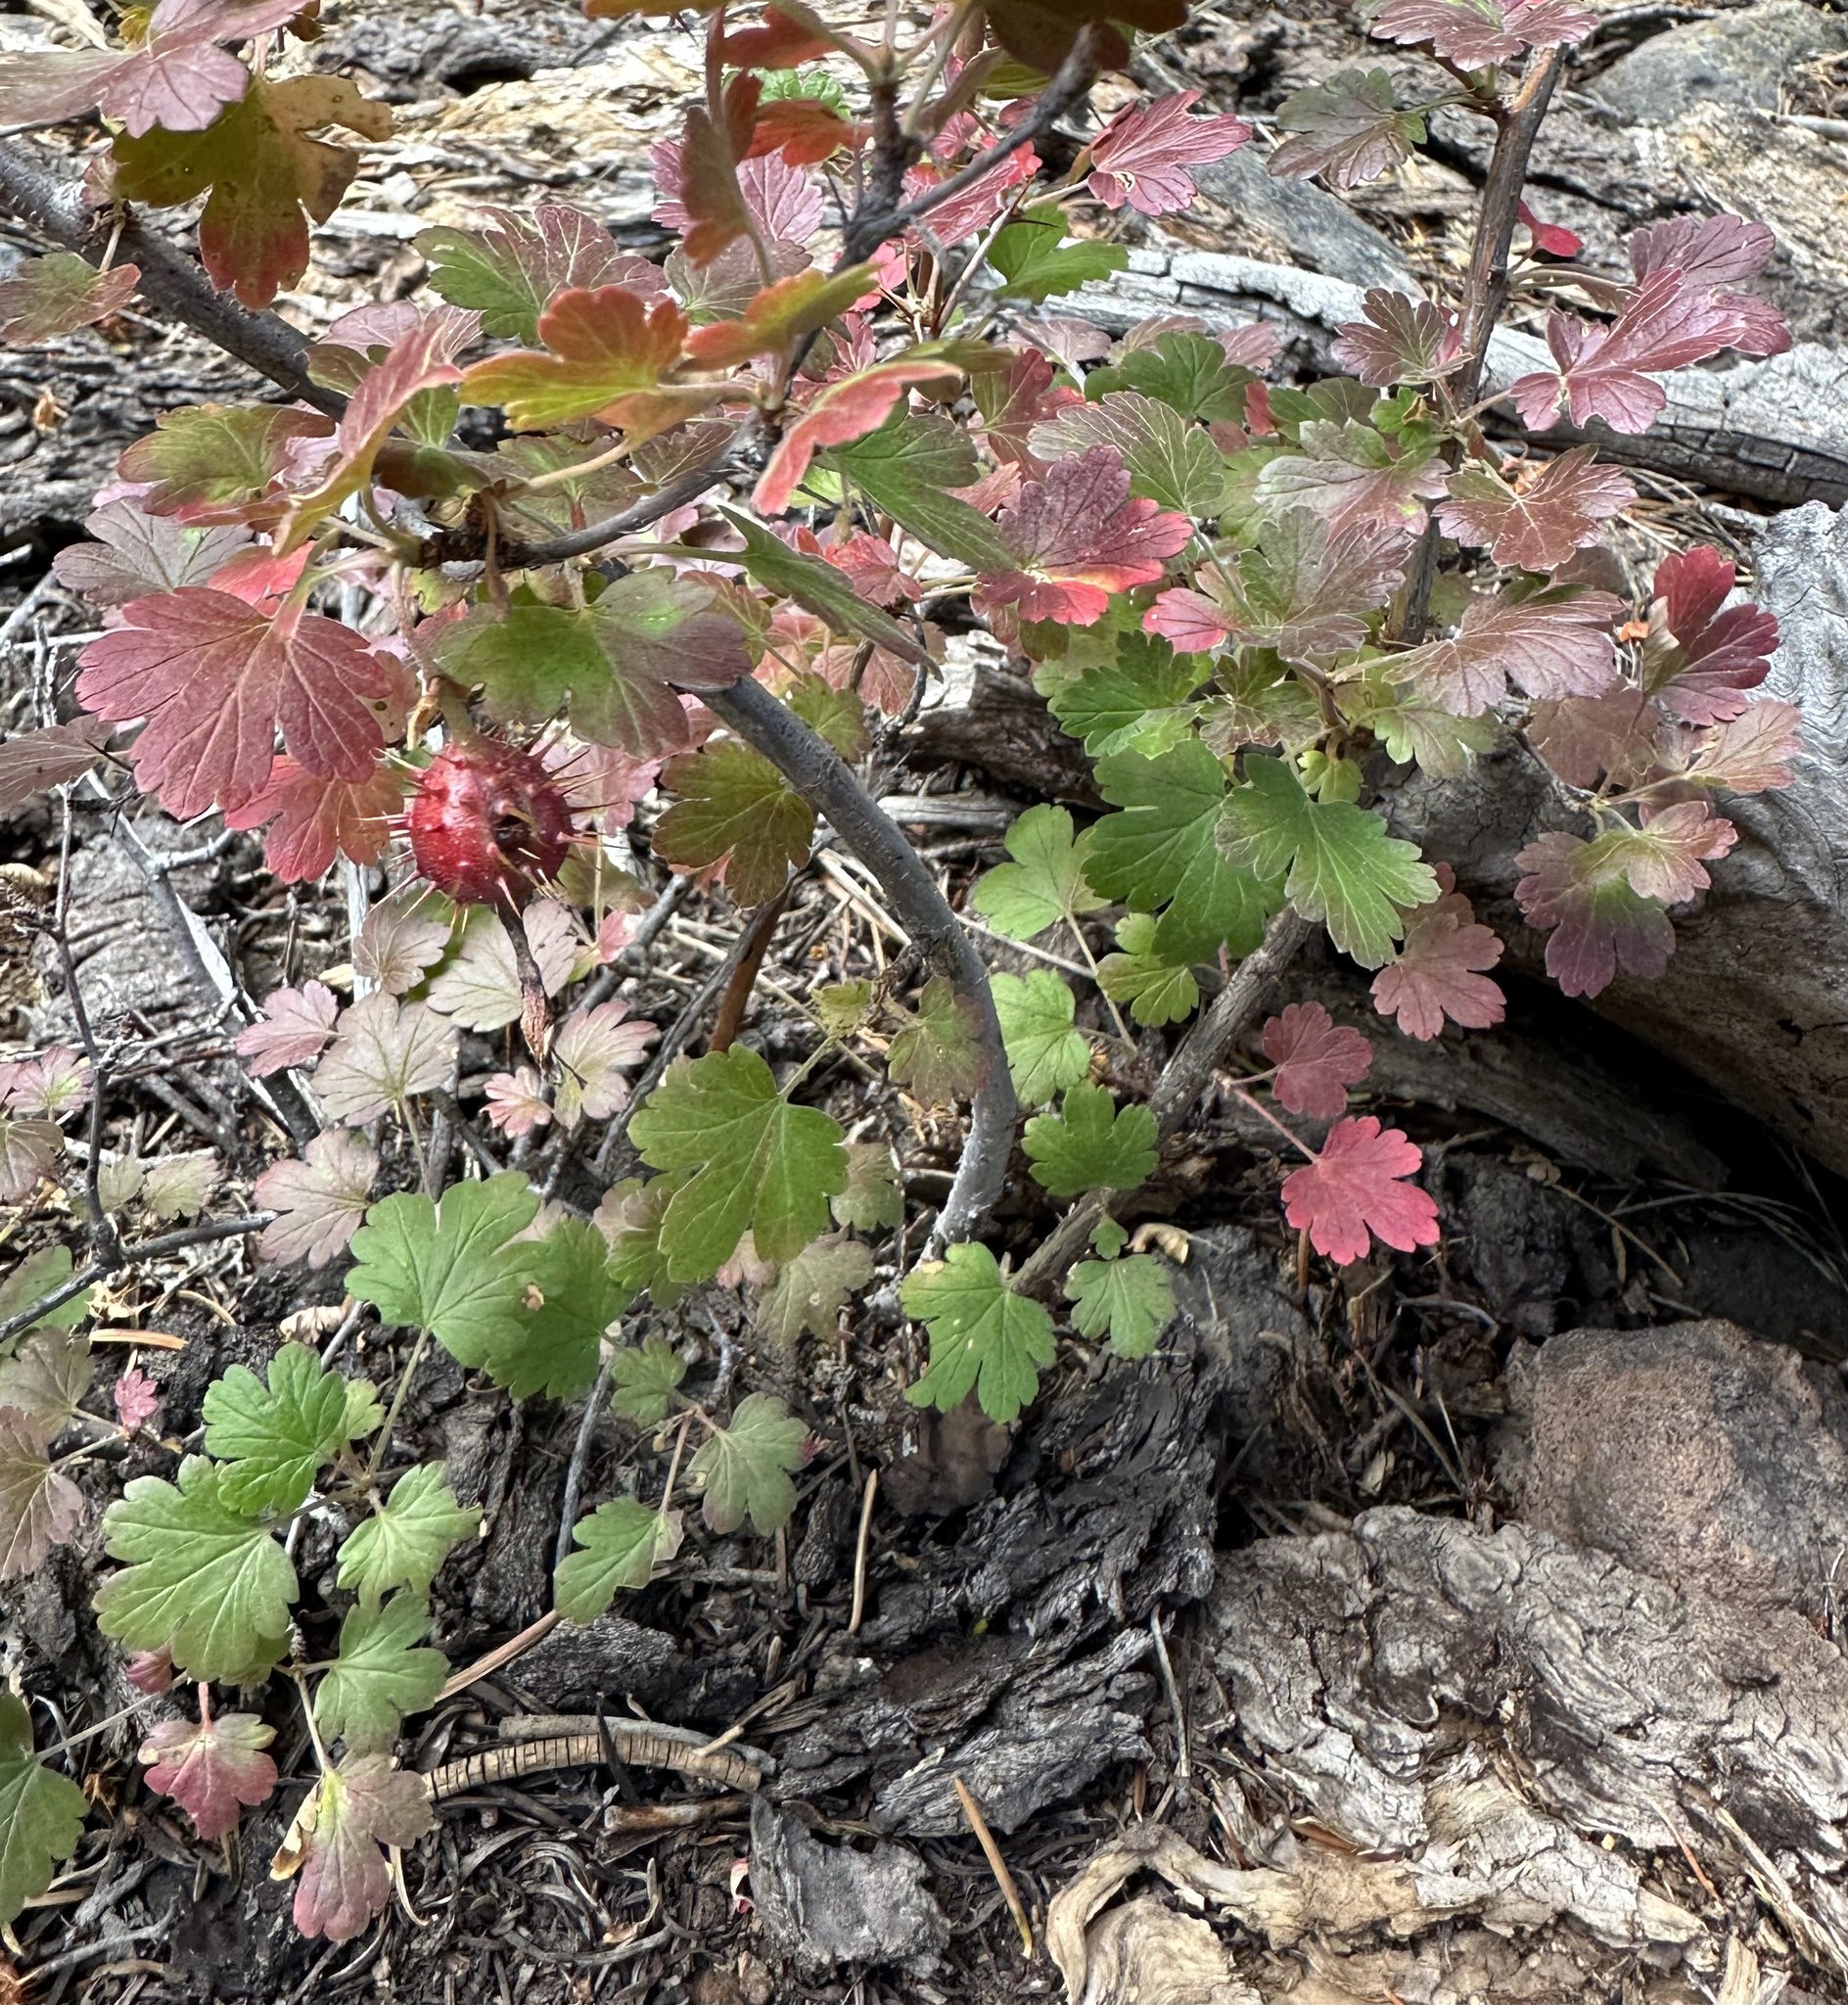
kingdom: Plantae
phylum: Tracheophyta
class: Magnoliopsida
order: Saxifragales
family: Grossulariaceae
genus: Ribes
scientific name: Ribes roezlii
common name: Sierra gooseberry
